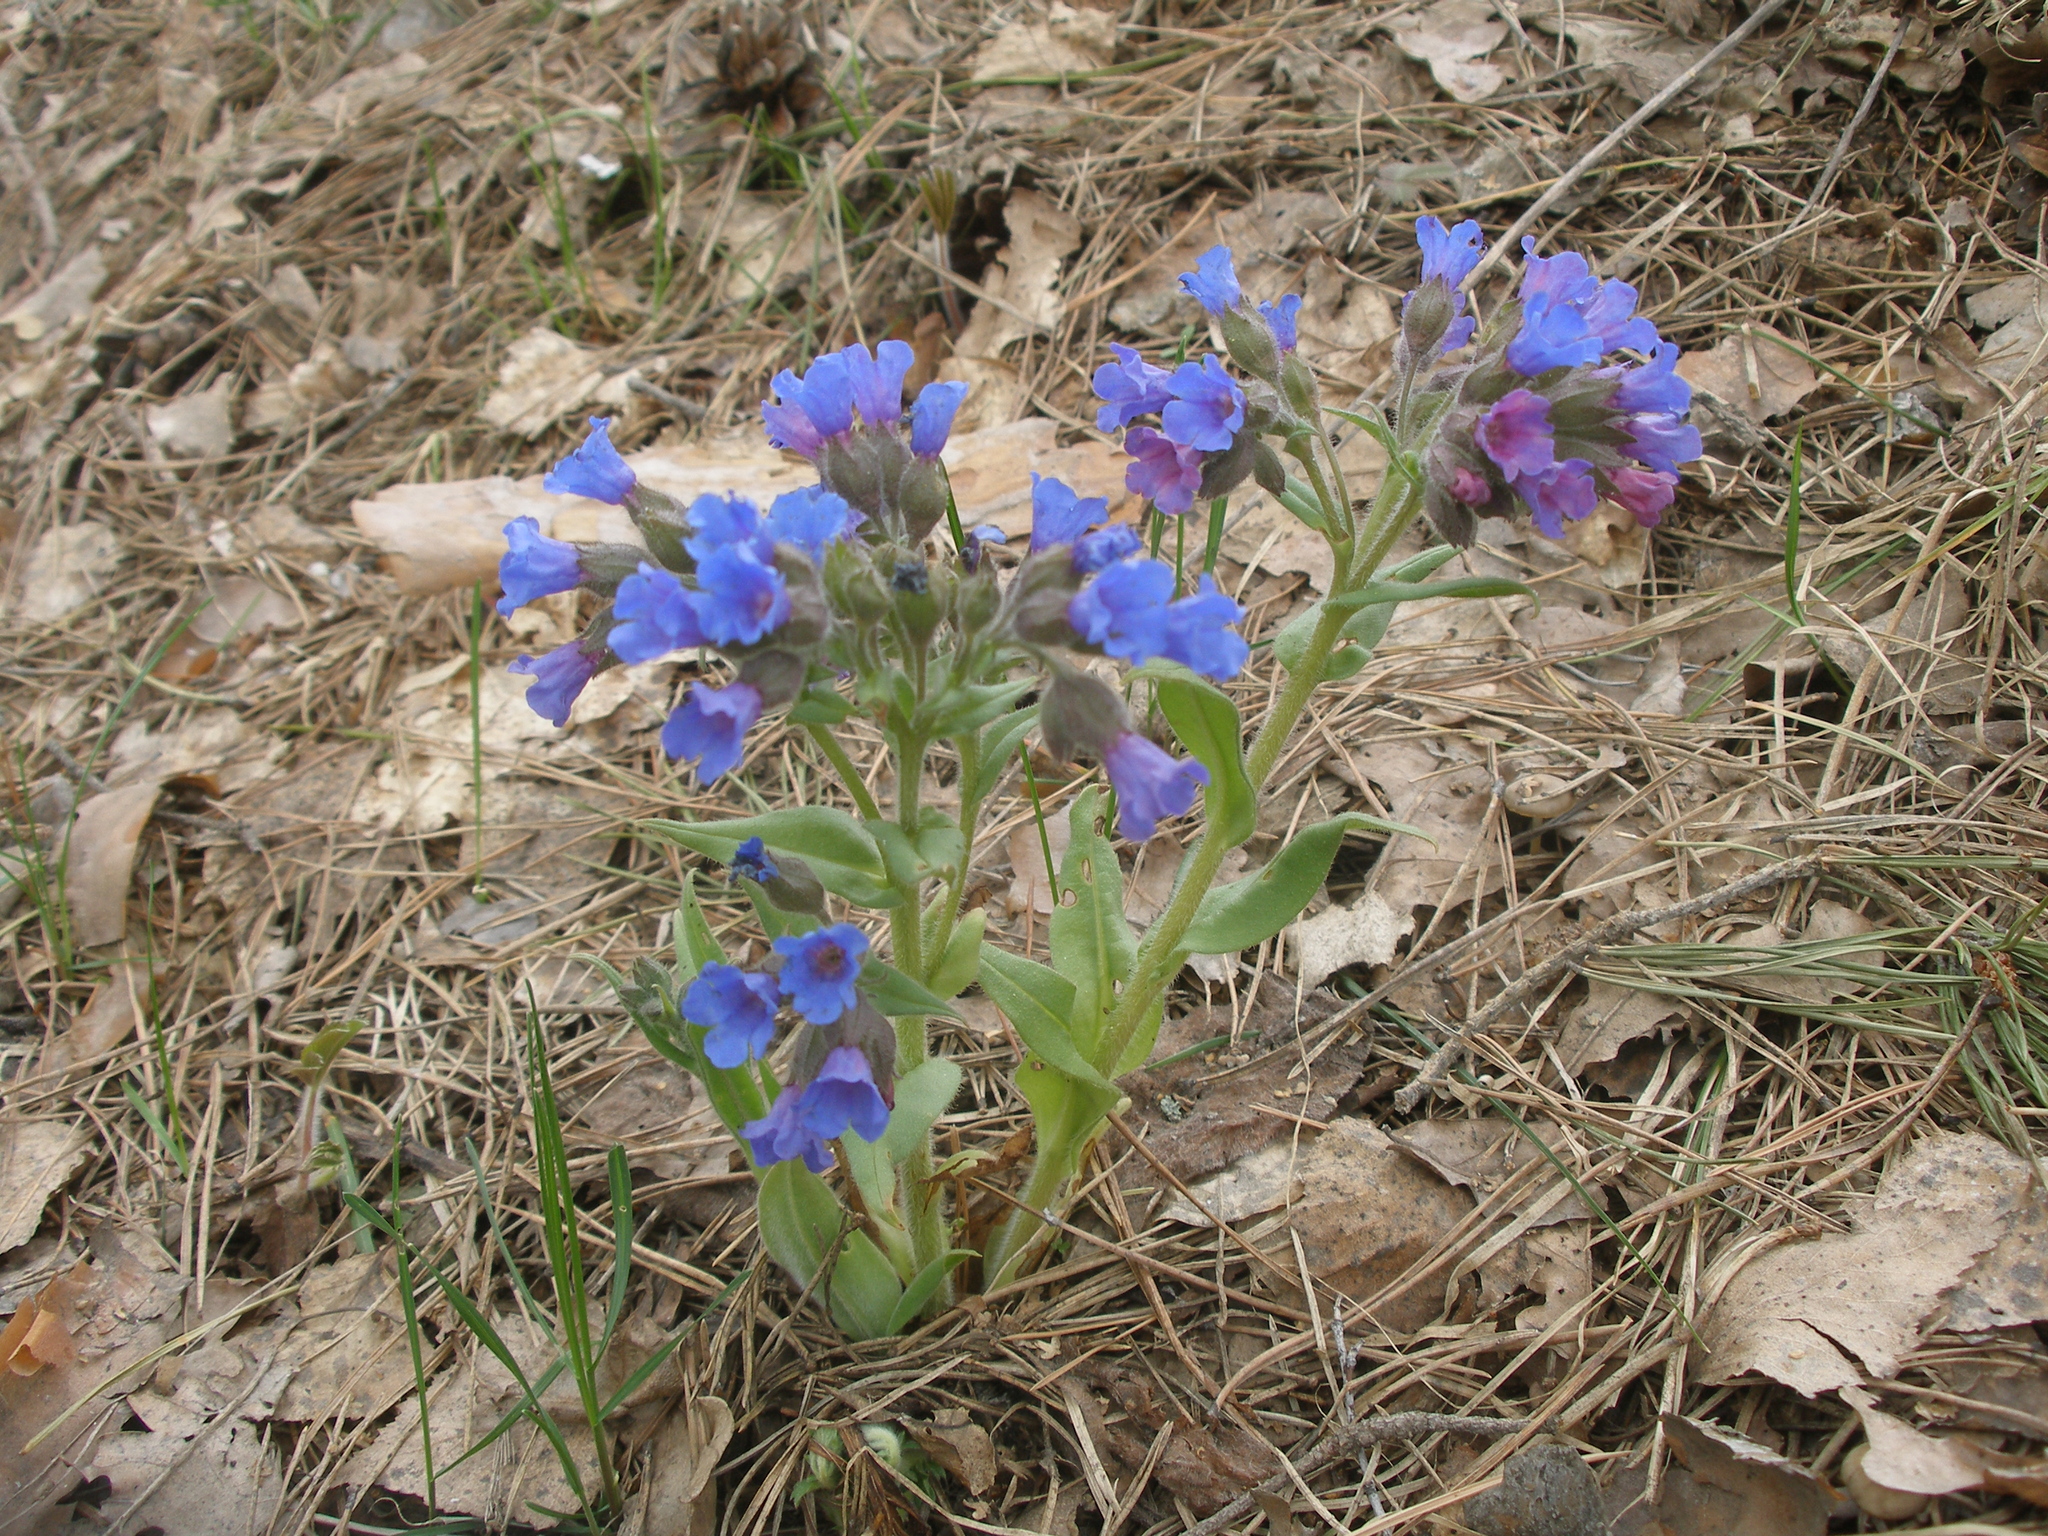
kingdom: Plantae
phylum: Tracheophyta
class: Magnoliopsida
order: Boraginales
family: Boraginaceae
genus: Pulmonaria
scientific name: Pulmonaria angustifolia
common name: Blue cowslip
